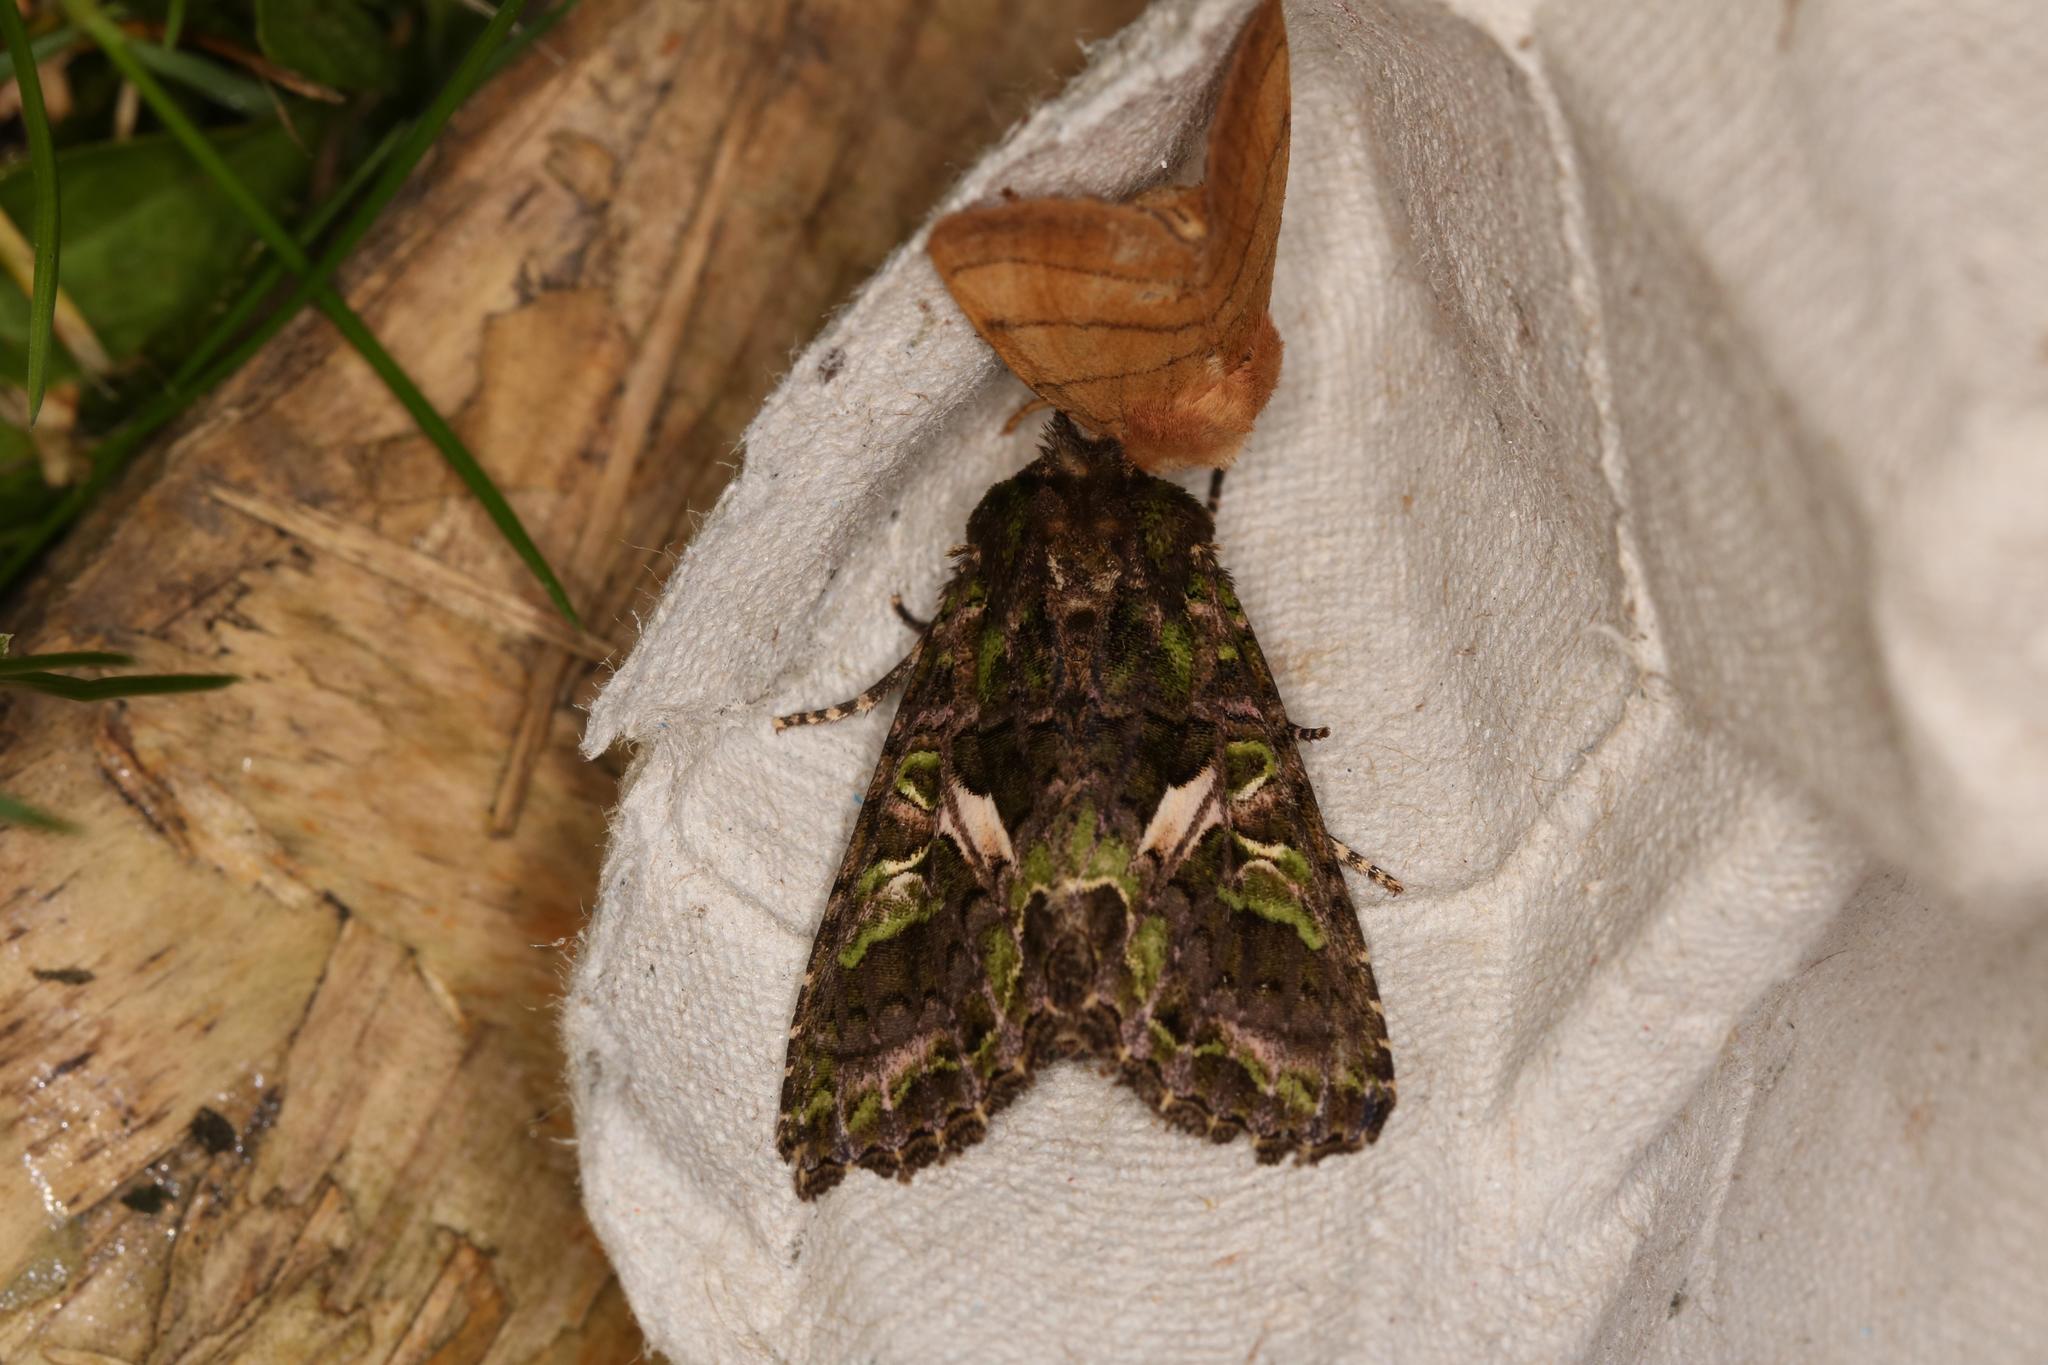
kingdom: Animalia
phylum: Arthropoda
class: Insecta
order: Lepidoptera
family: Noctuidae
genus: Trachea
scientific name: Trachea atriplicis
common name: Orache moth
